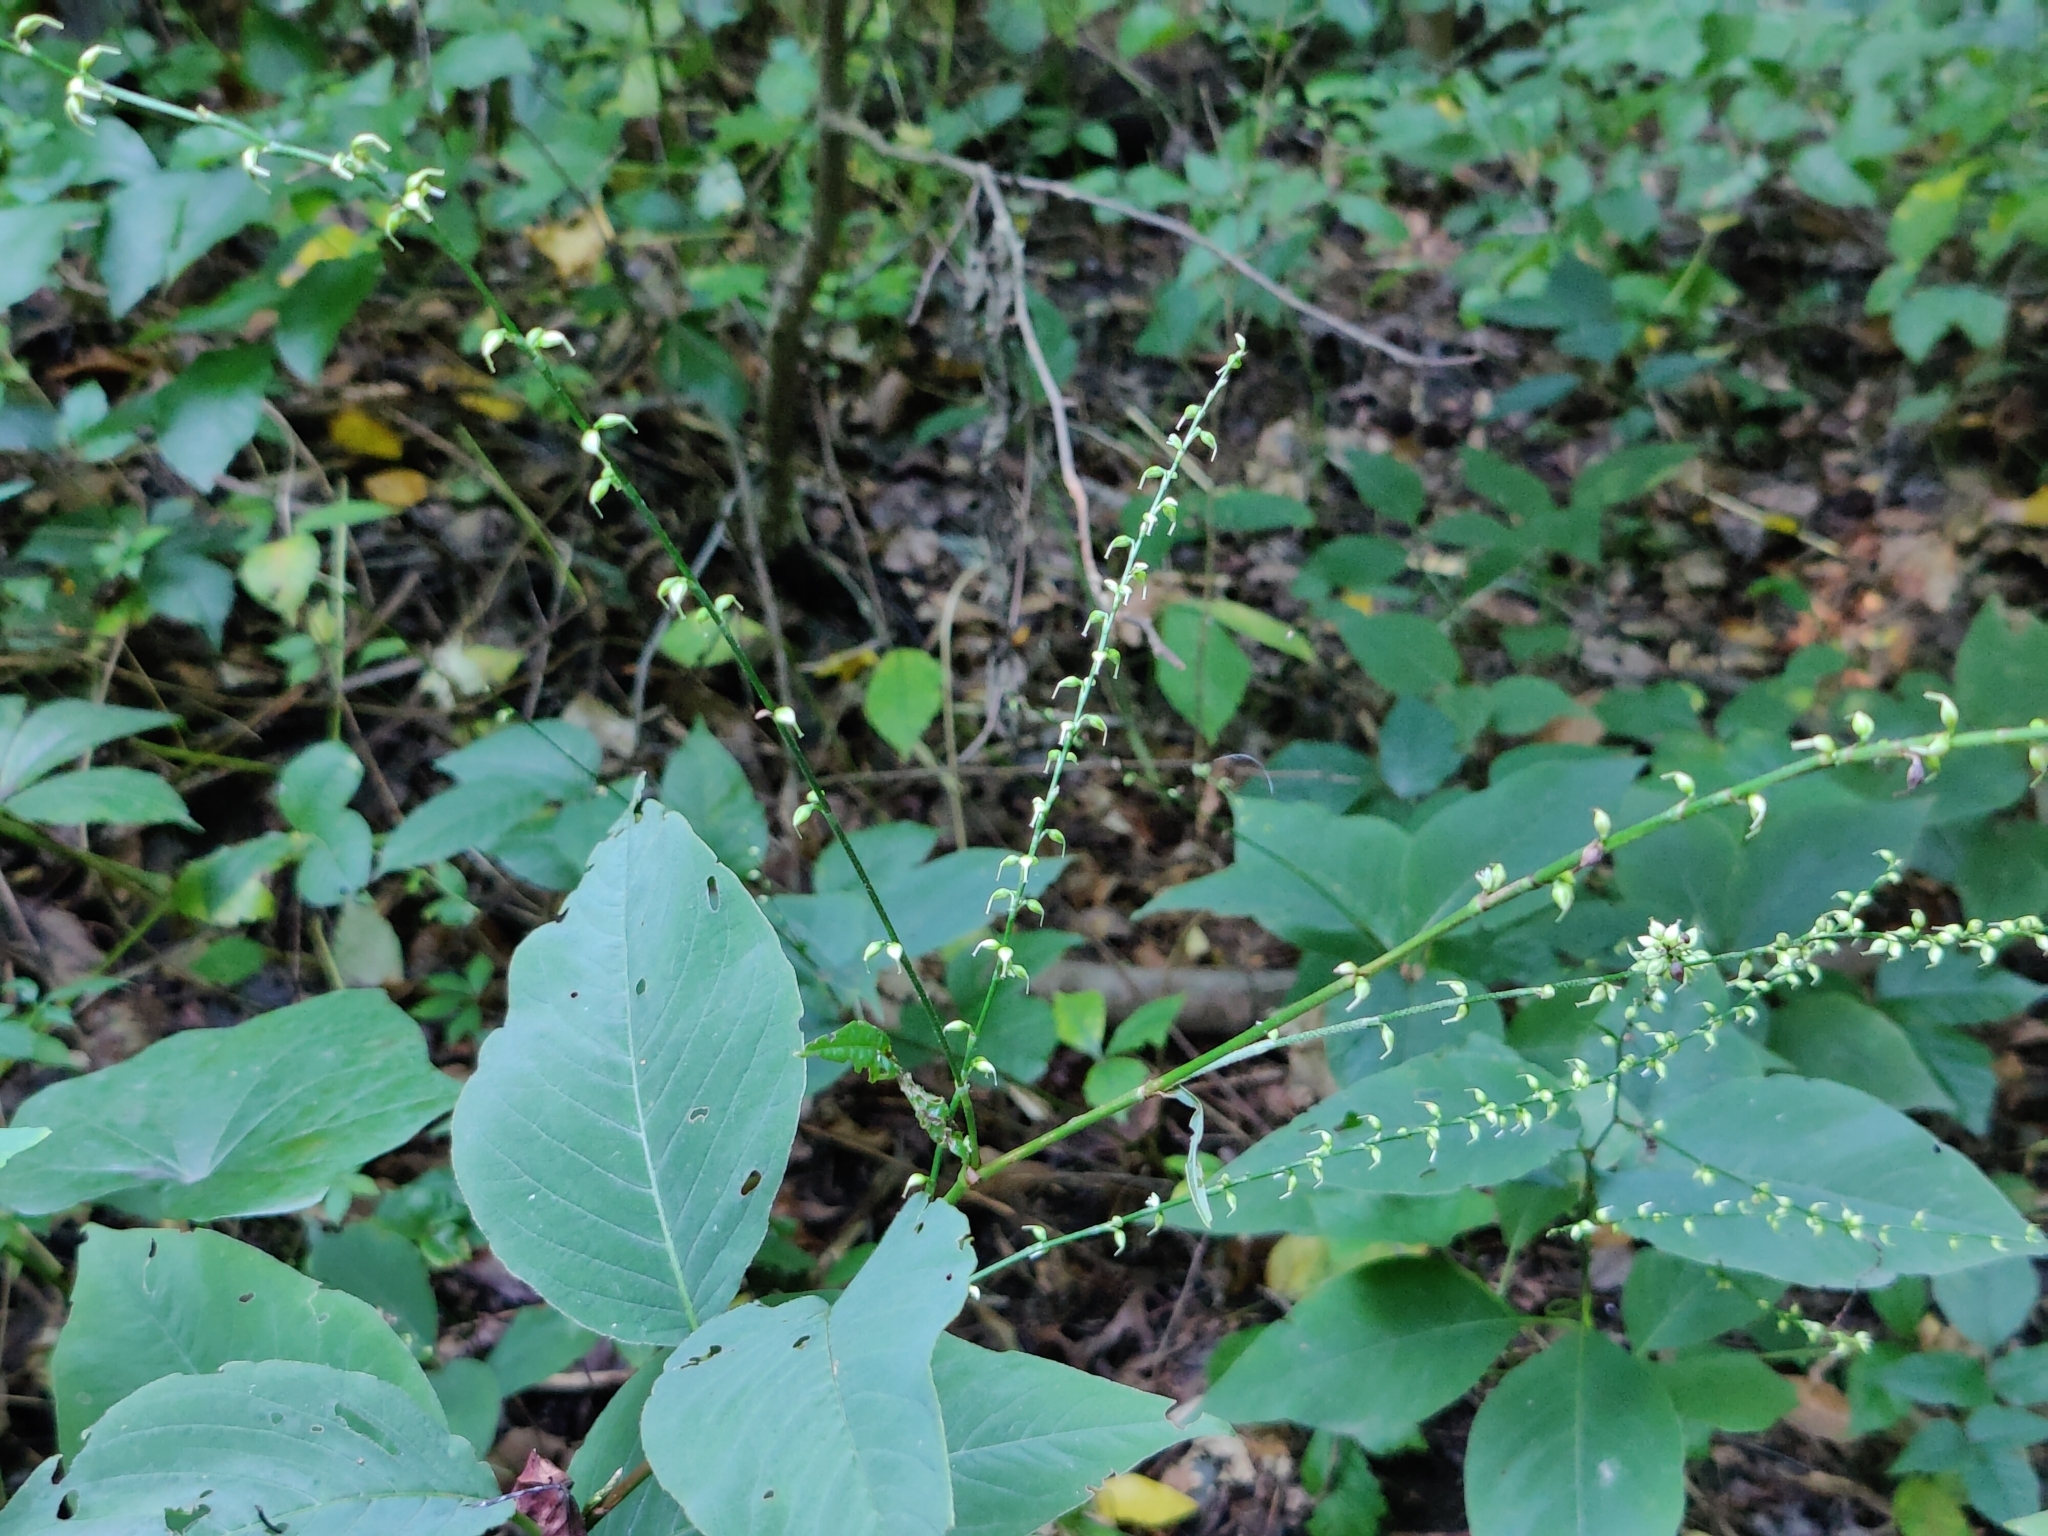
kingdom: Plantae
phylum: Tracheophyta
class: Magnoliopsida
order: Caryophyllales
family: Polygonaceae
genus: Persicaria
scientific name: Persicaria virginiana
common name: Jumpseed
